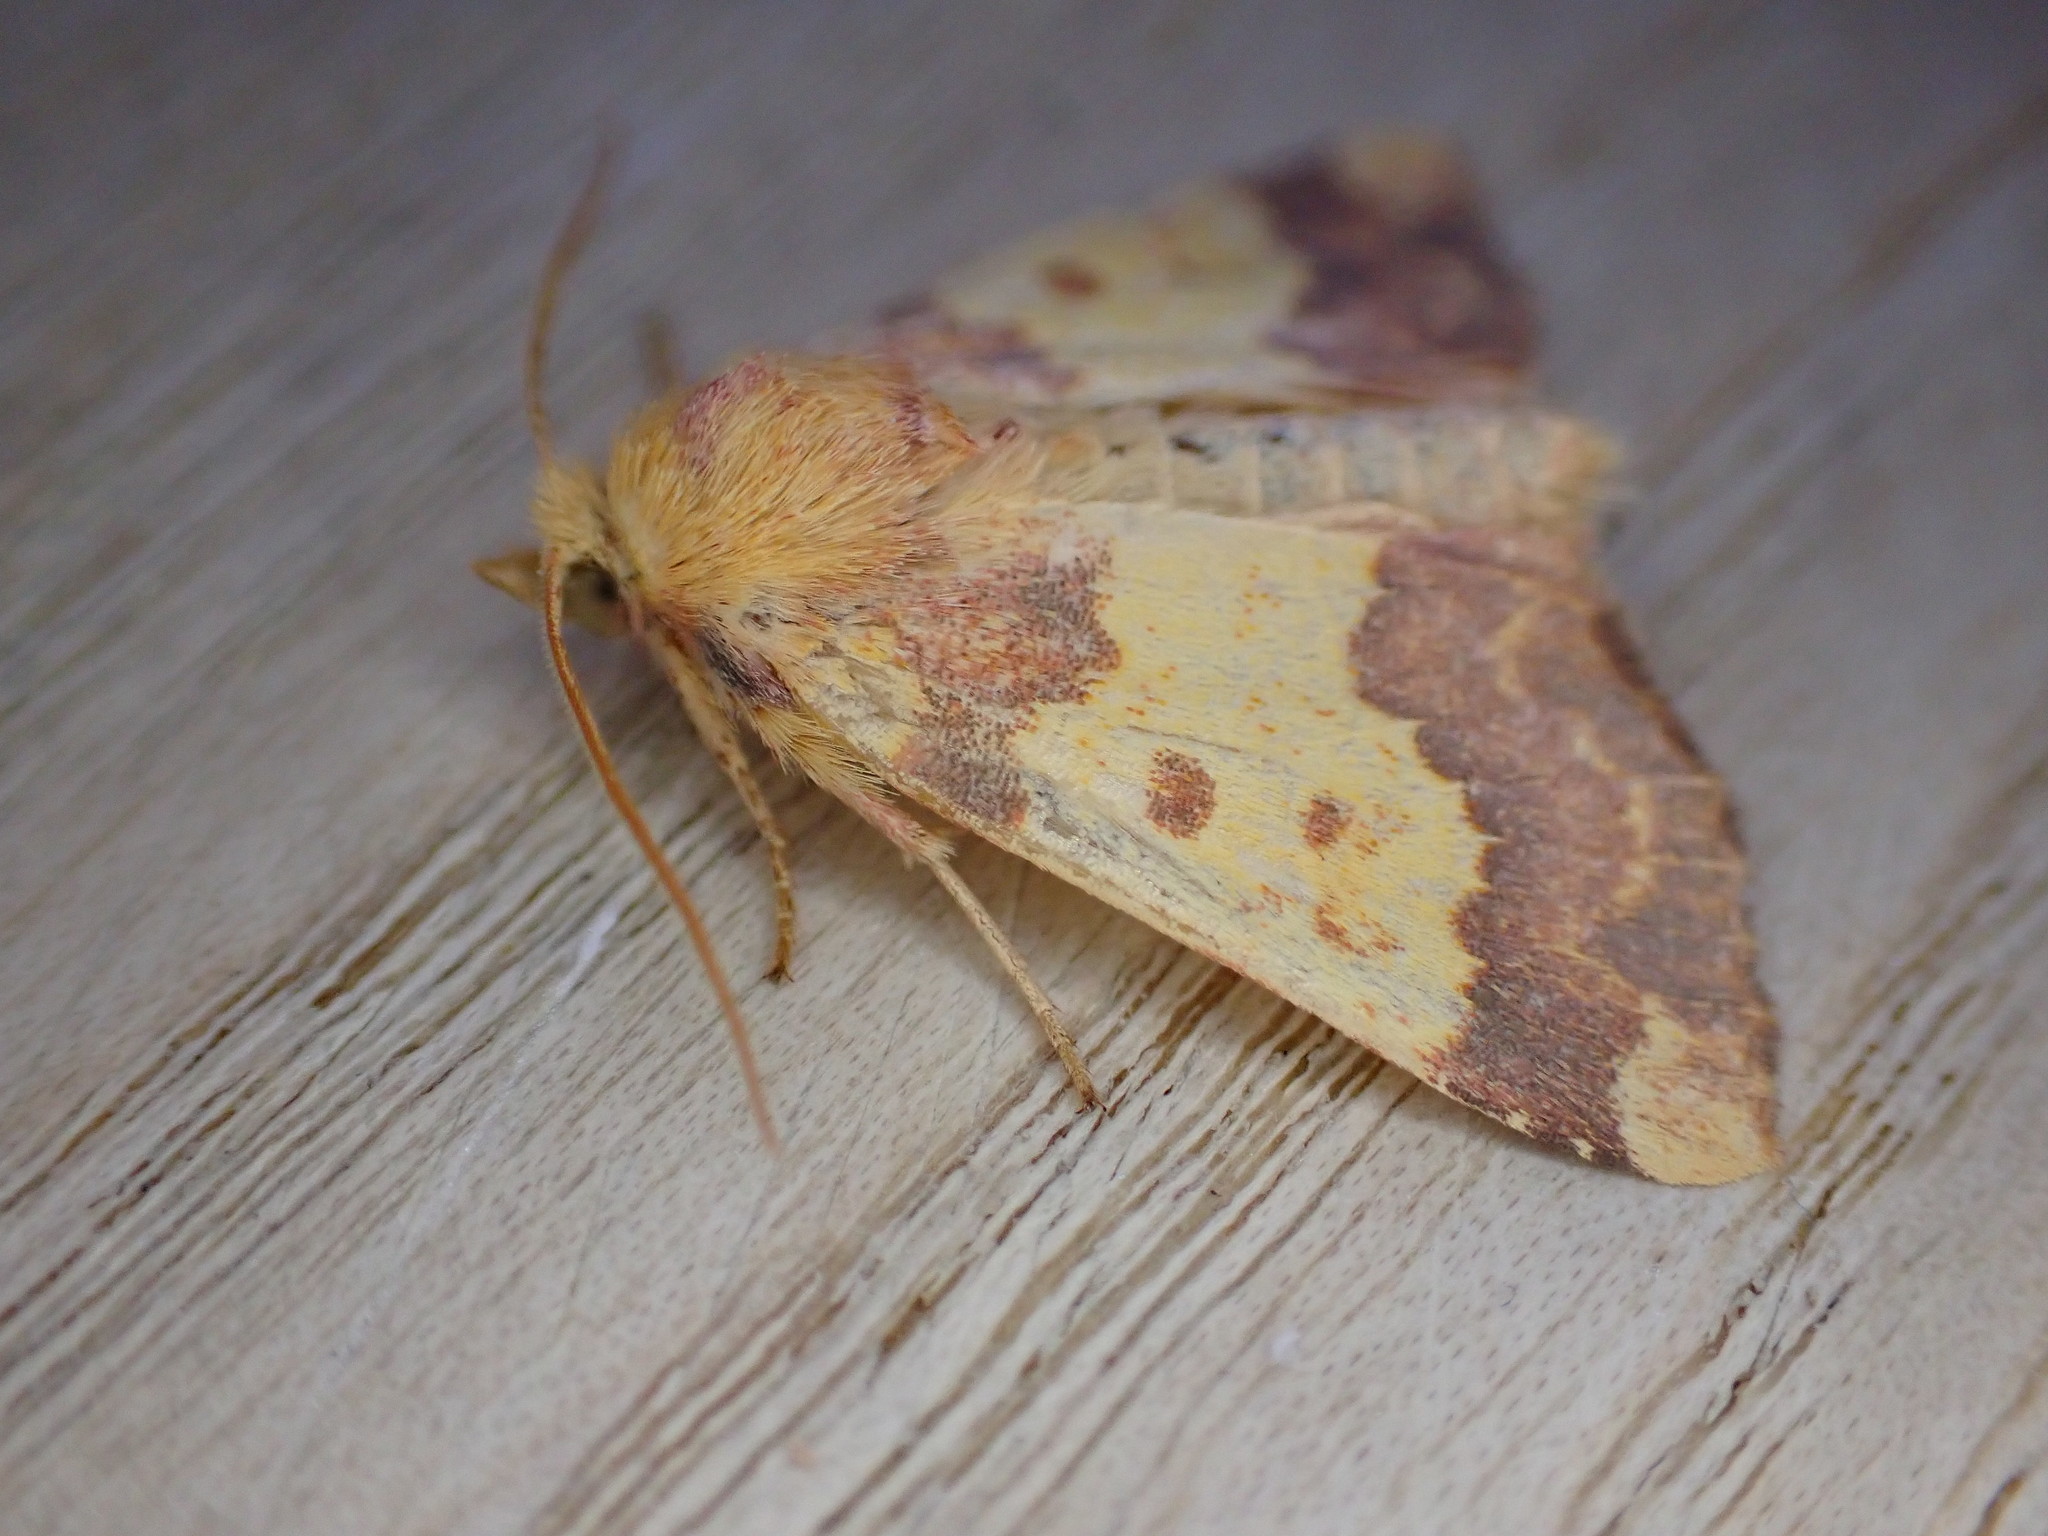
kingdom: Animalia
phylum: Arthropoda
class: Insecta
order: Lepidoptera
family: Noctuidae
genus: Tiliacea
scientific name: Tiliacea aurago
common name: Barred sallow
